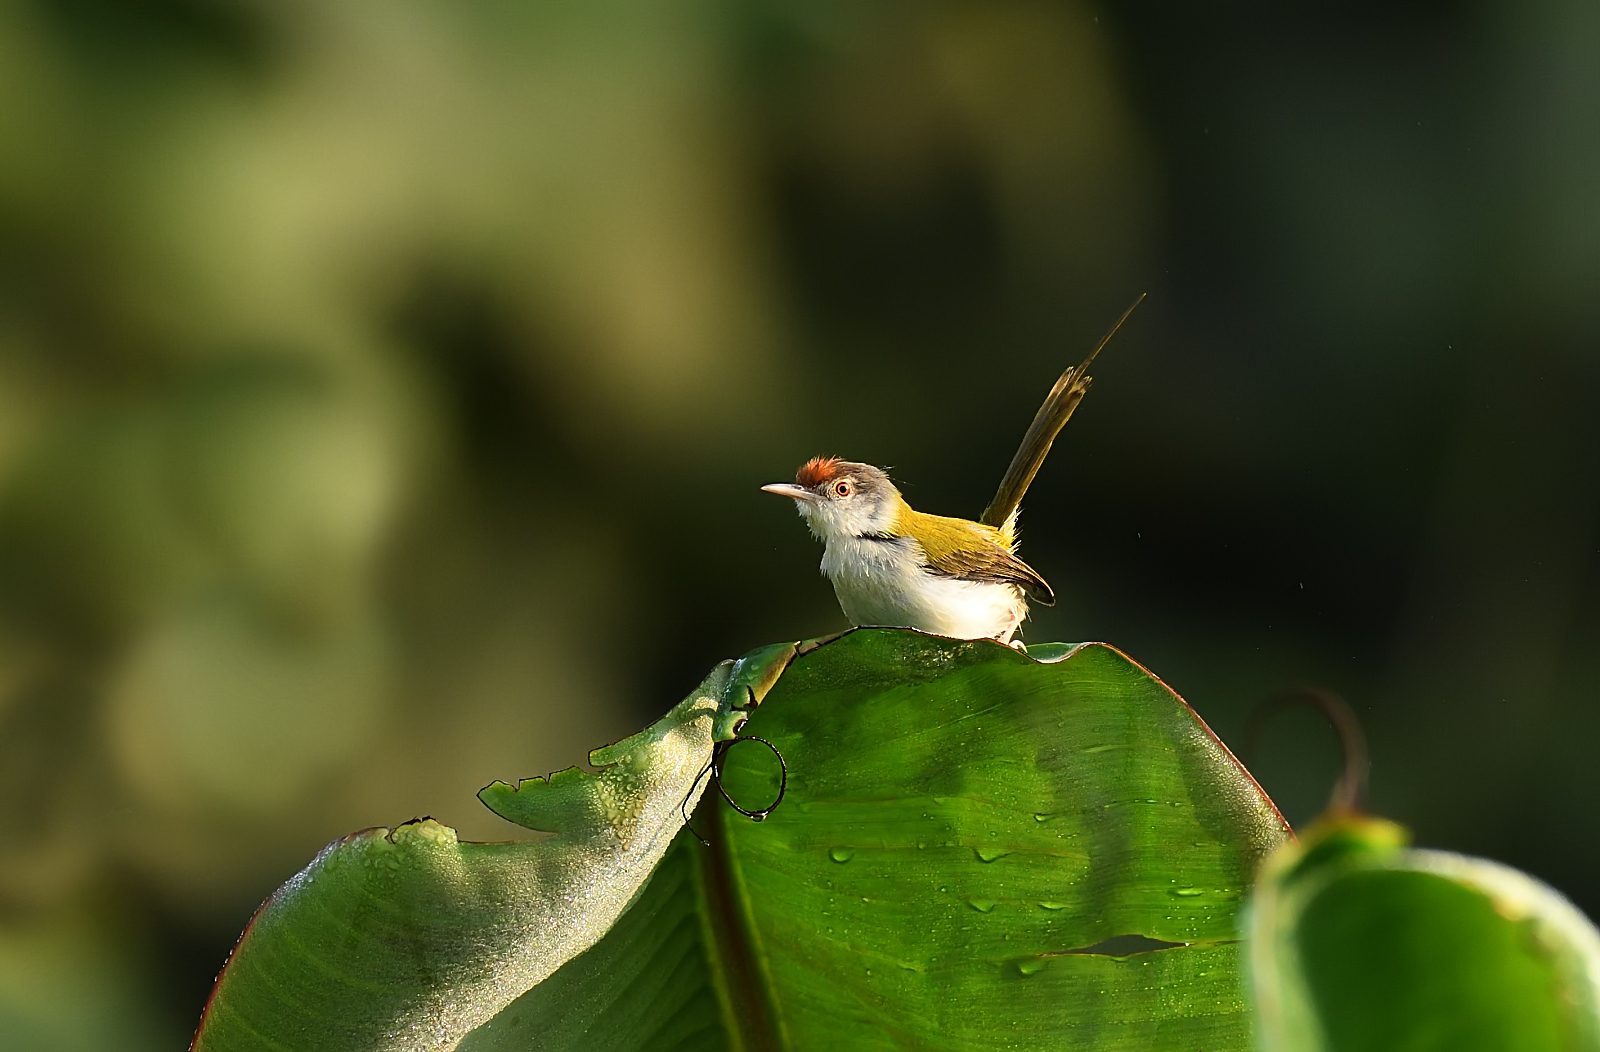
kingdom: Animalia
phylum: Chordata
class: Aves
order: Passeriformes
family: Cisticolidae
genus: Orthotomus
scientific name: Orthotomus sutorius
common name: Common tailorbird
